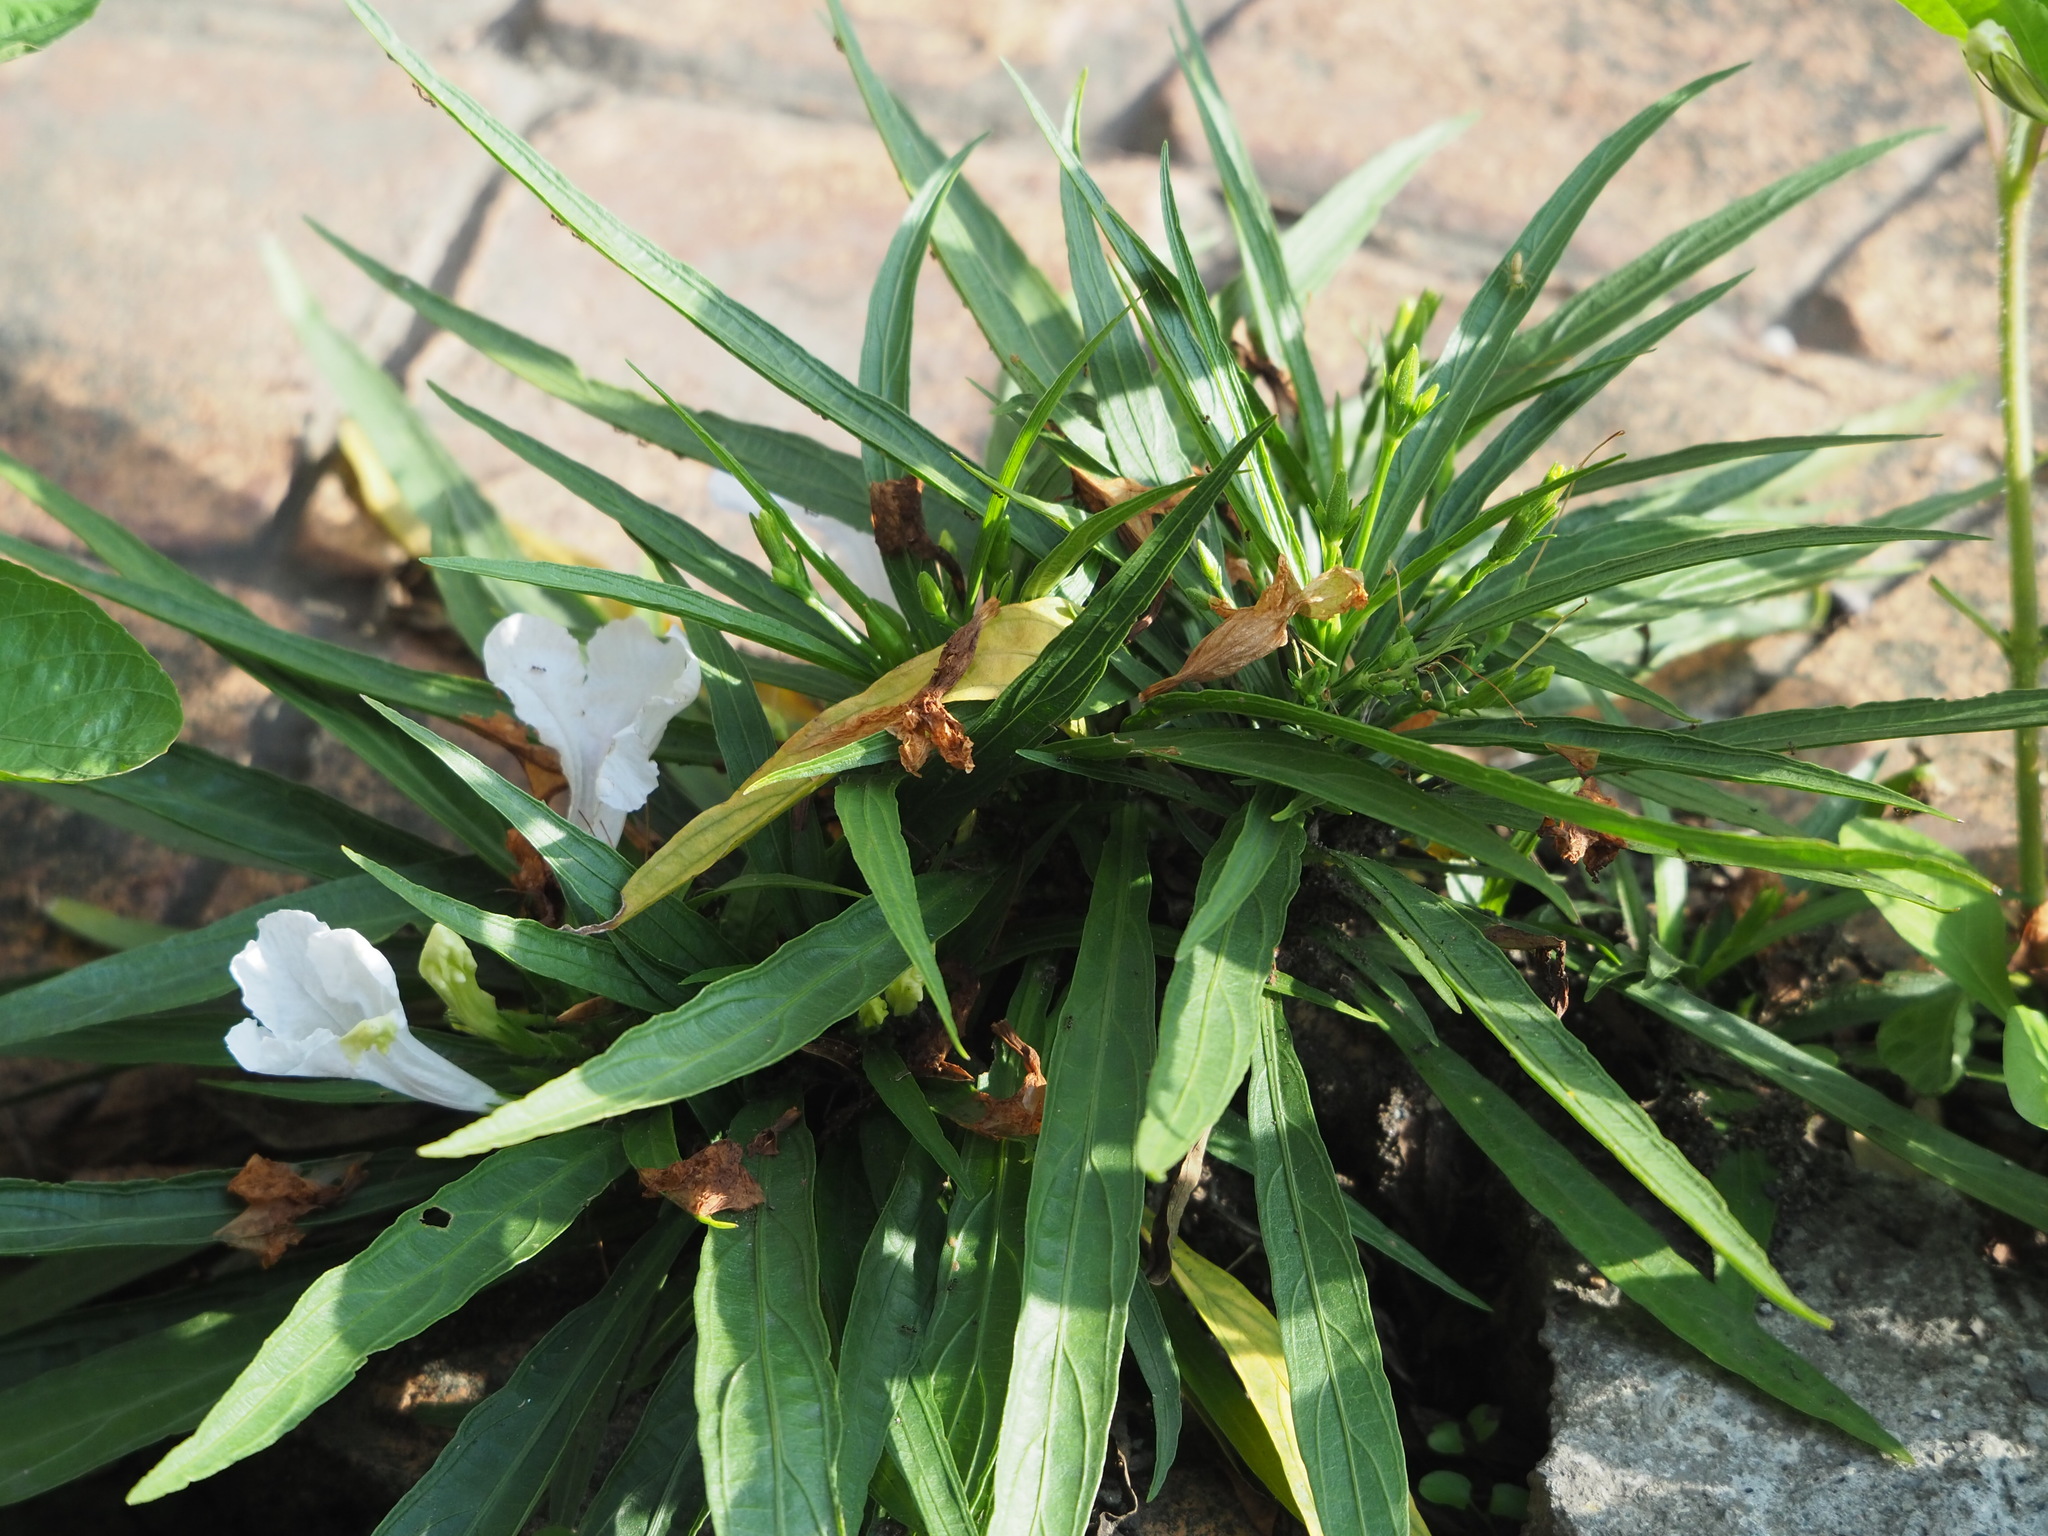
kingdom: Plantae
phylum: Tracheophyta
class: Magnoliopsida
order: Lamiales
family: Acanthaceae
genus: Ruellia
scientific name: Ruellia simplex
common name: Softseed wild petunia
